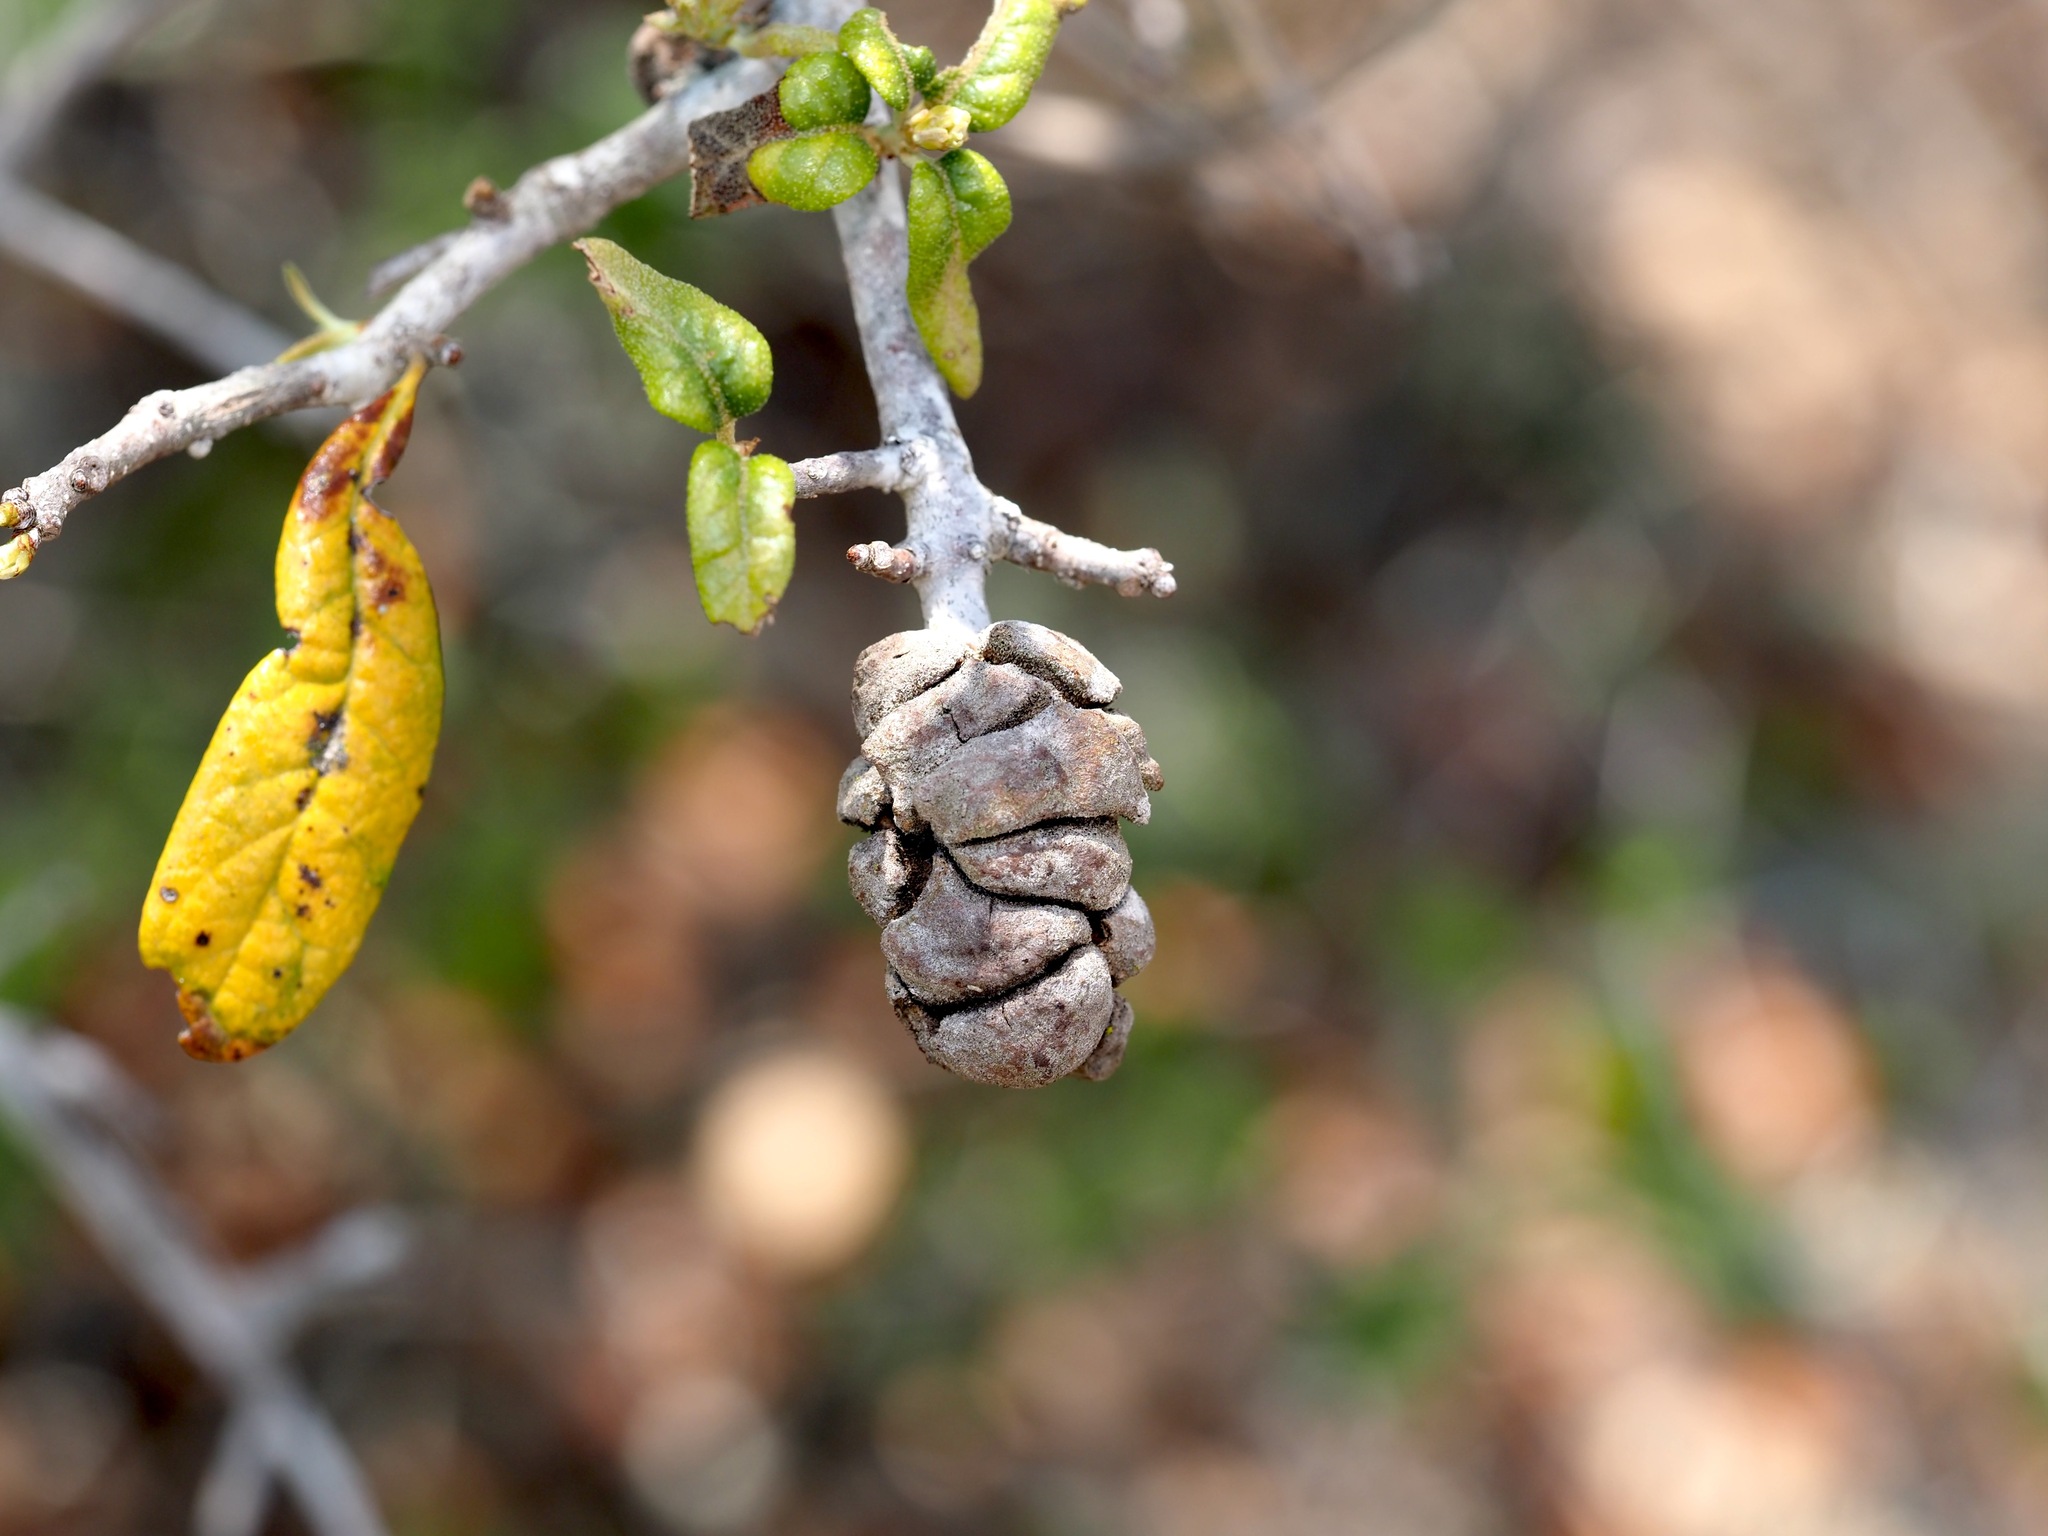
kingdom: Animalia
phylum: Arthropoda
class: Insecta
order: Hymenoptera
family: Cynipidae
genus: Disholcaspis
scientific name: Disholcaspis
